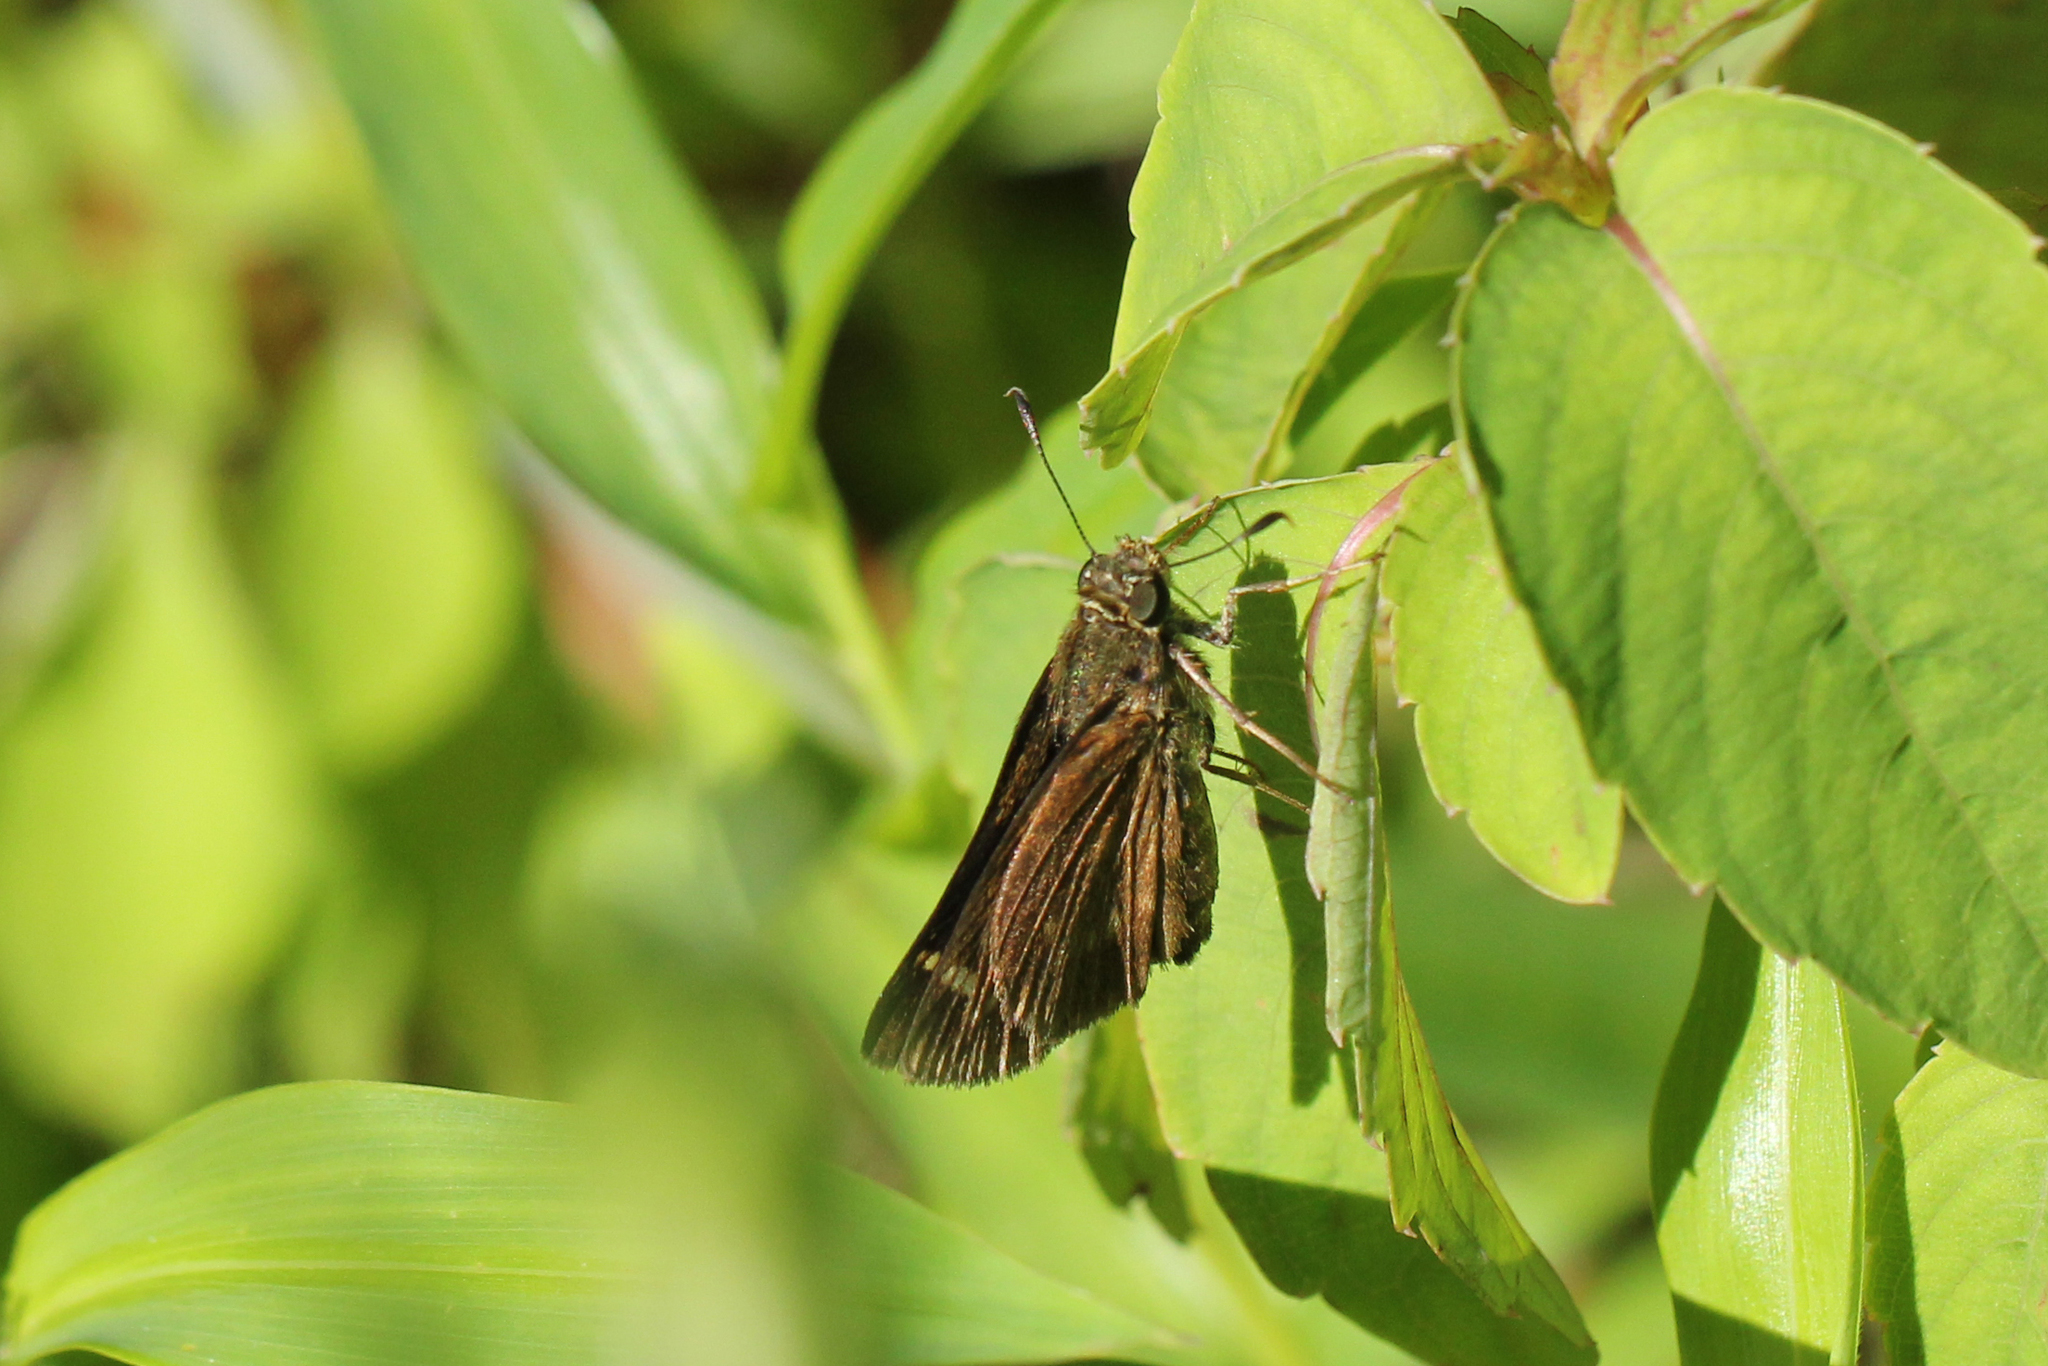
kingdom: Animalia
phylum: Arthropoda
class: Insecta
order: Lepidoptera
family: Hesperiidae
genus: Vernia
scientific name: Vernia verna
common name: Little glassywing
